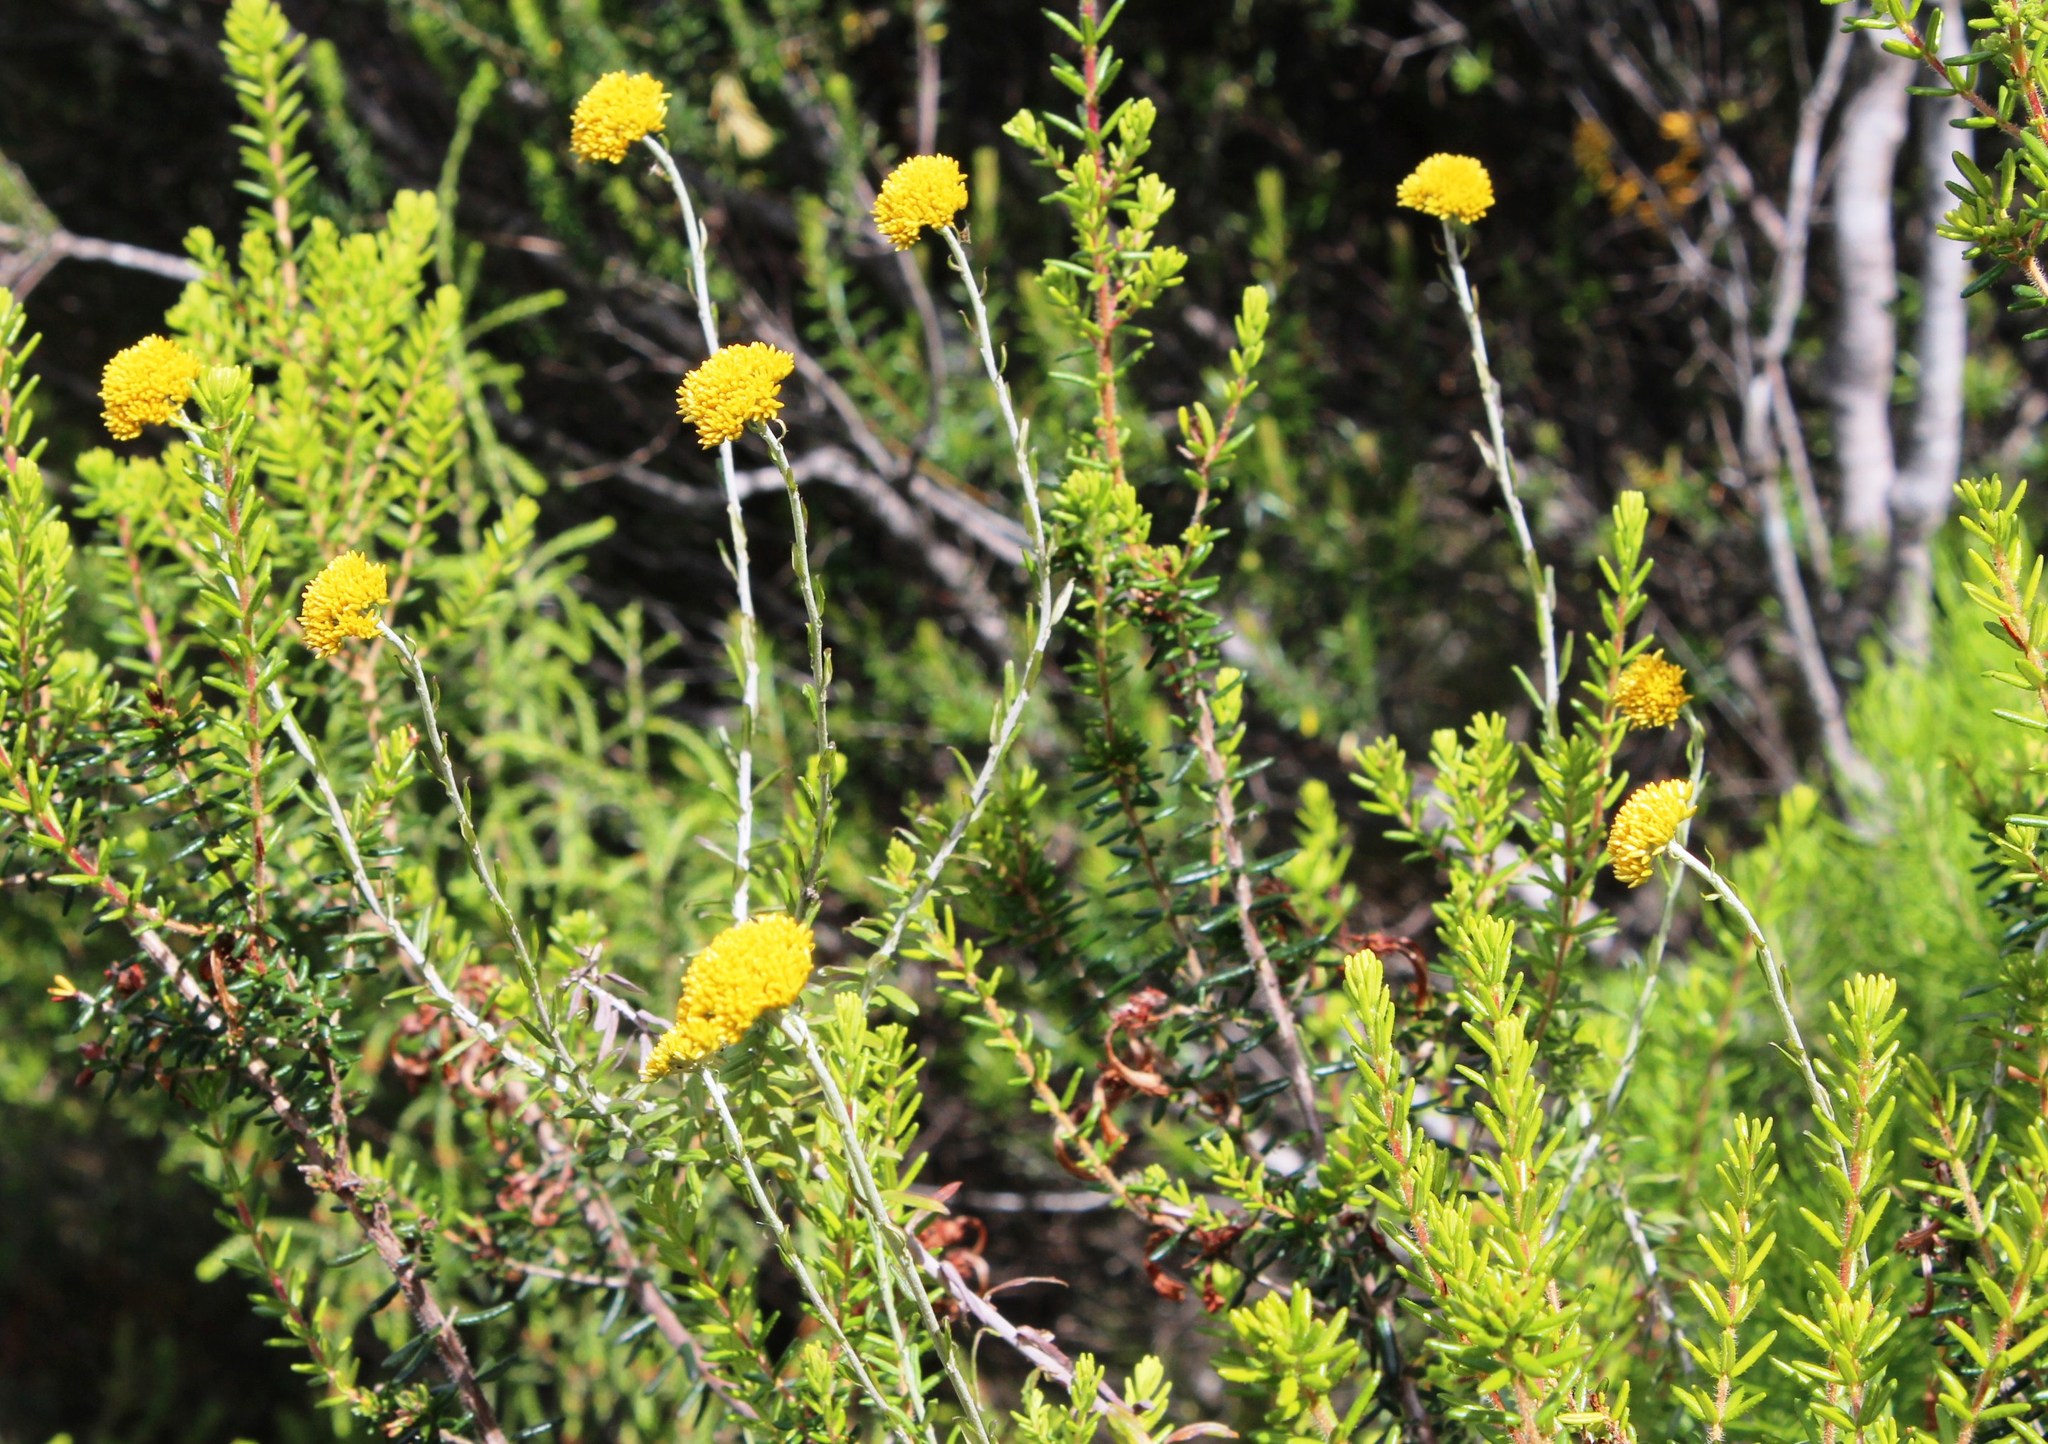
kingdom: Plantae
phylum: Tracheophyta
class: Magnoliopsida
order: Asterales
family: Asteraceae
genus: Helichrysum
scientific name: Helichrysum cymosum
